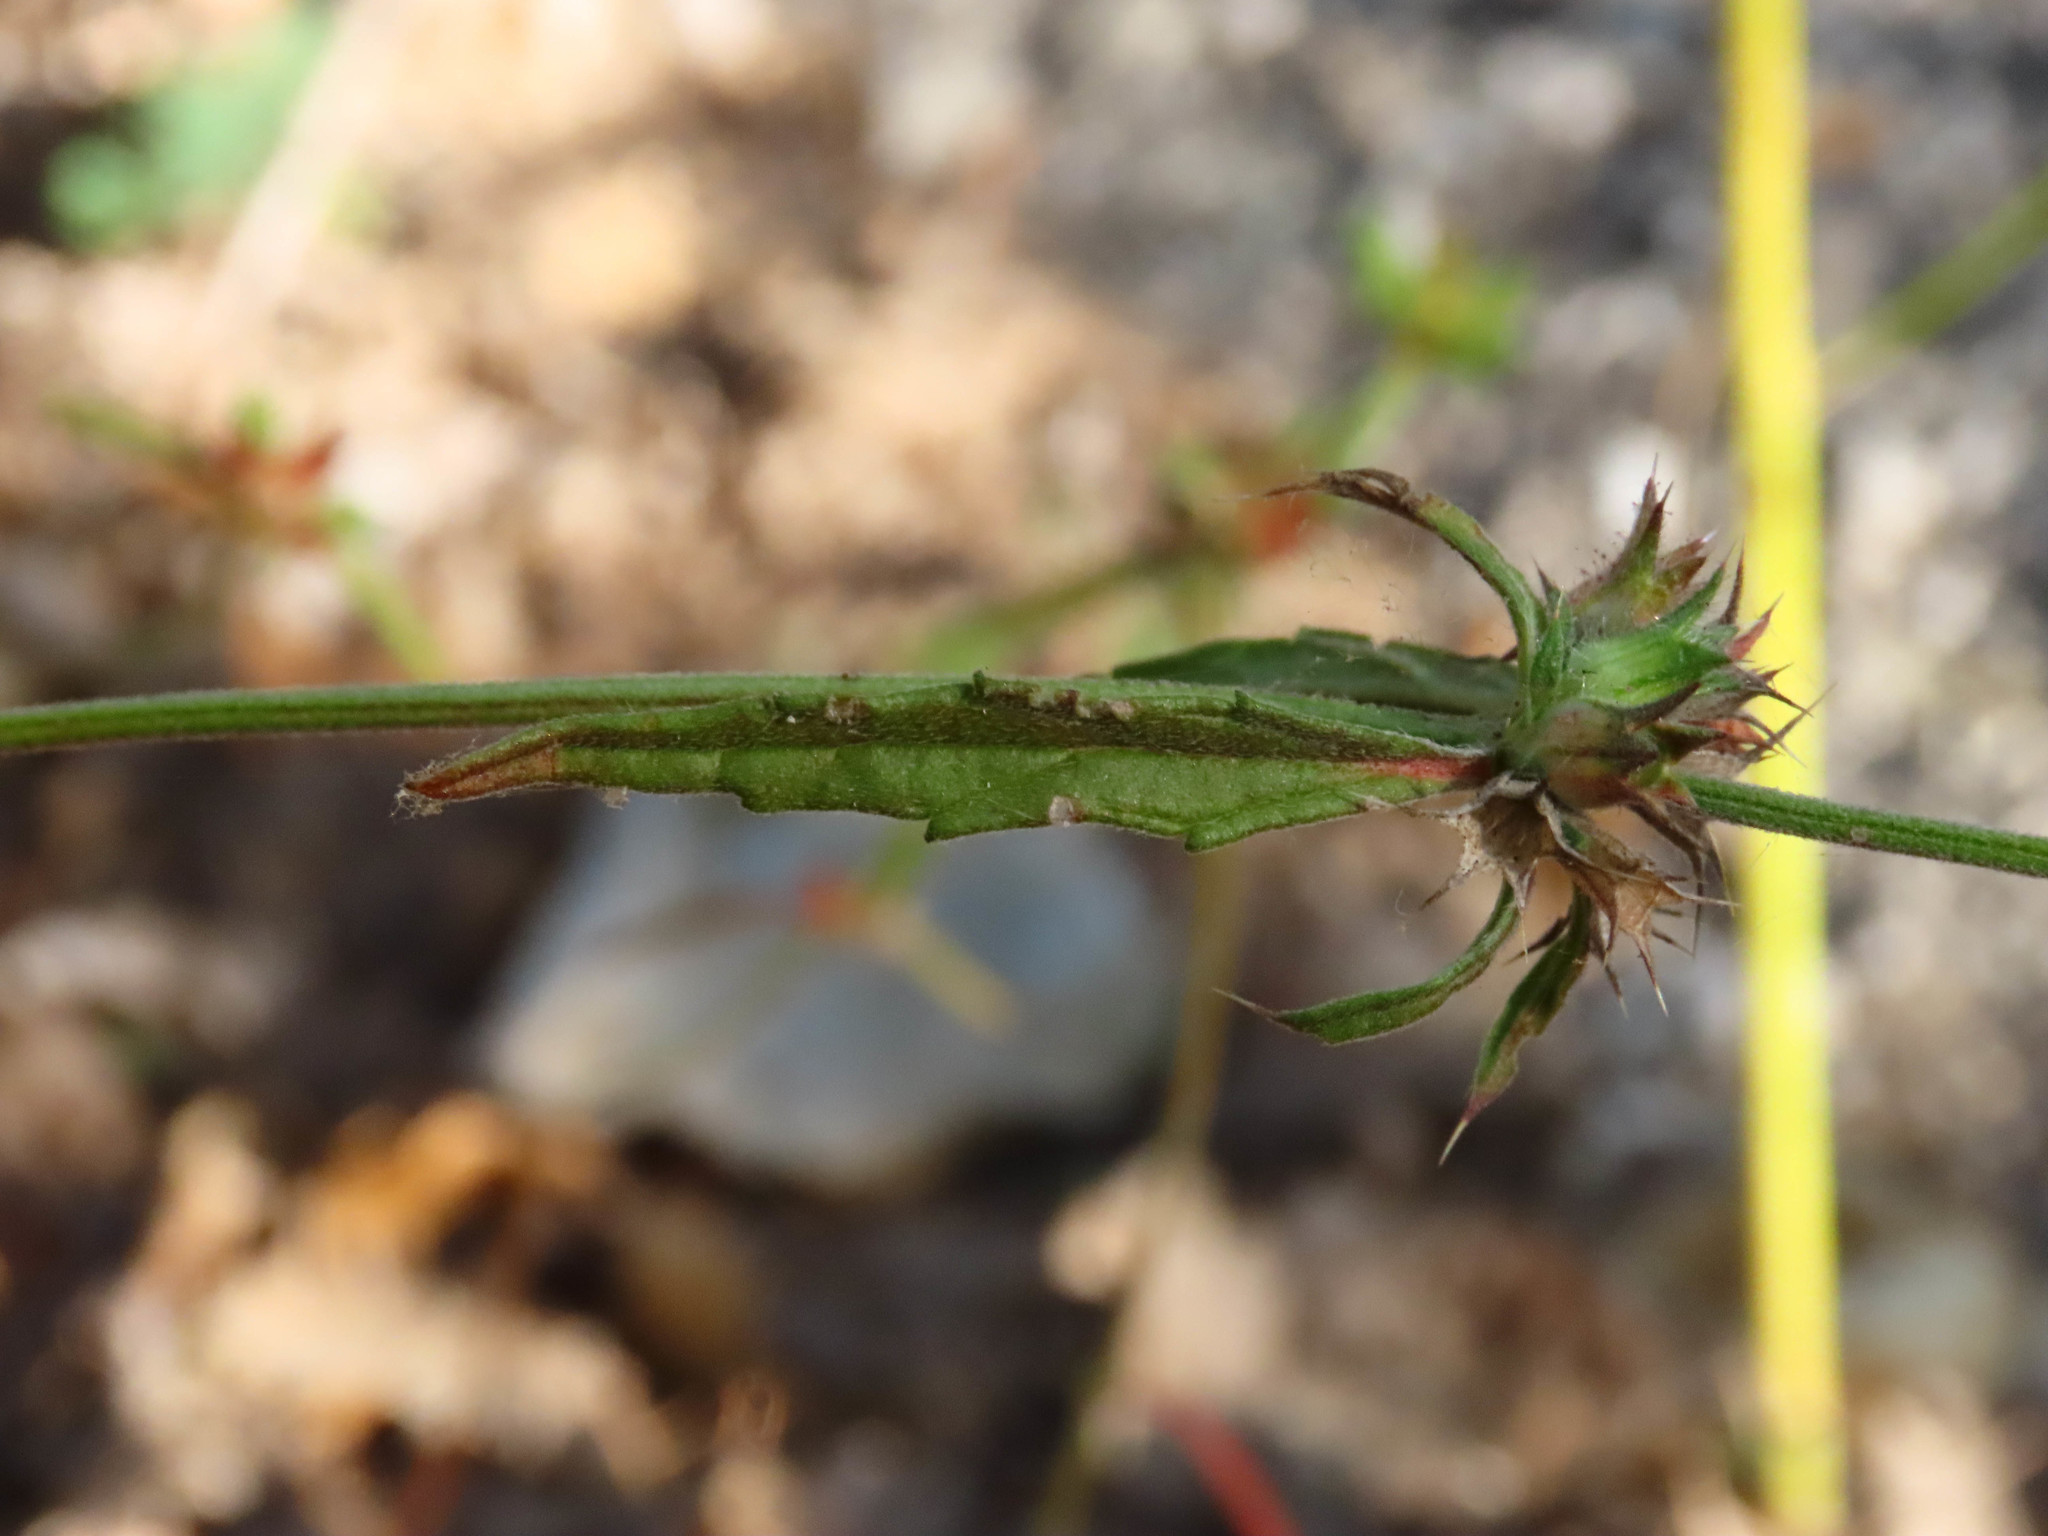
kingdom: Plantae
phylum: Tracheophyta
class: Magnoliopsida
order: Lamiales
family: Lamiaceae
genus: Galeopsis
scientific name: Galeopsis angustifolia
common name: Red hemp-nettle
